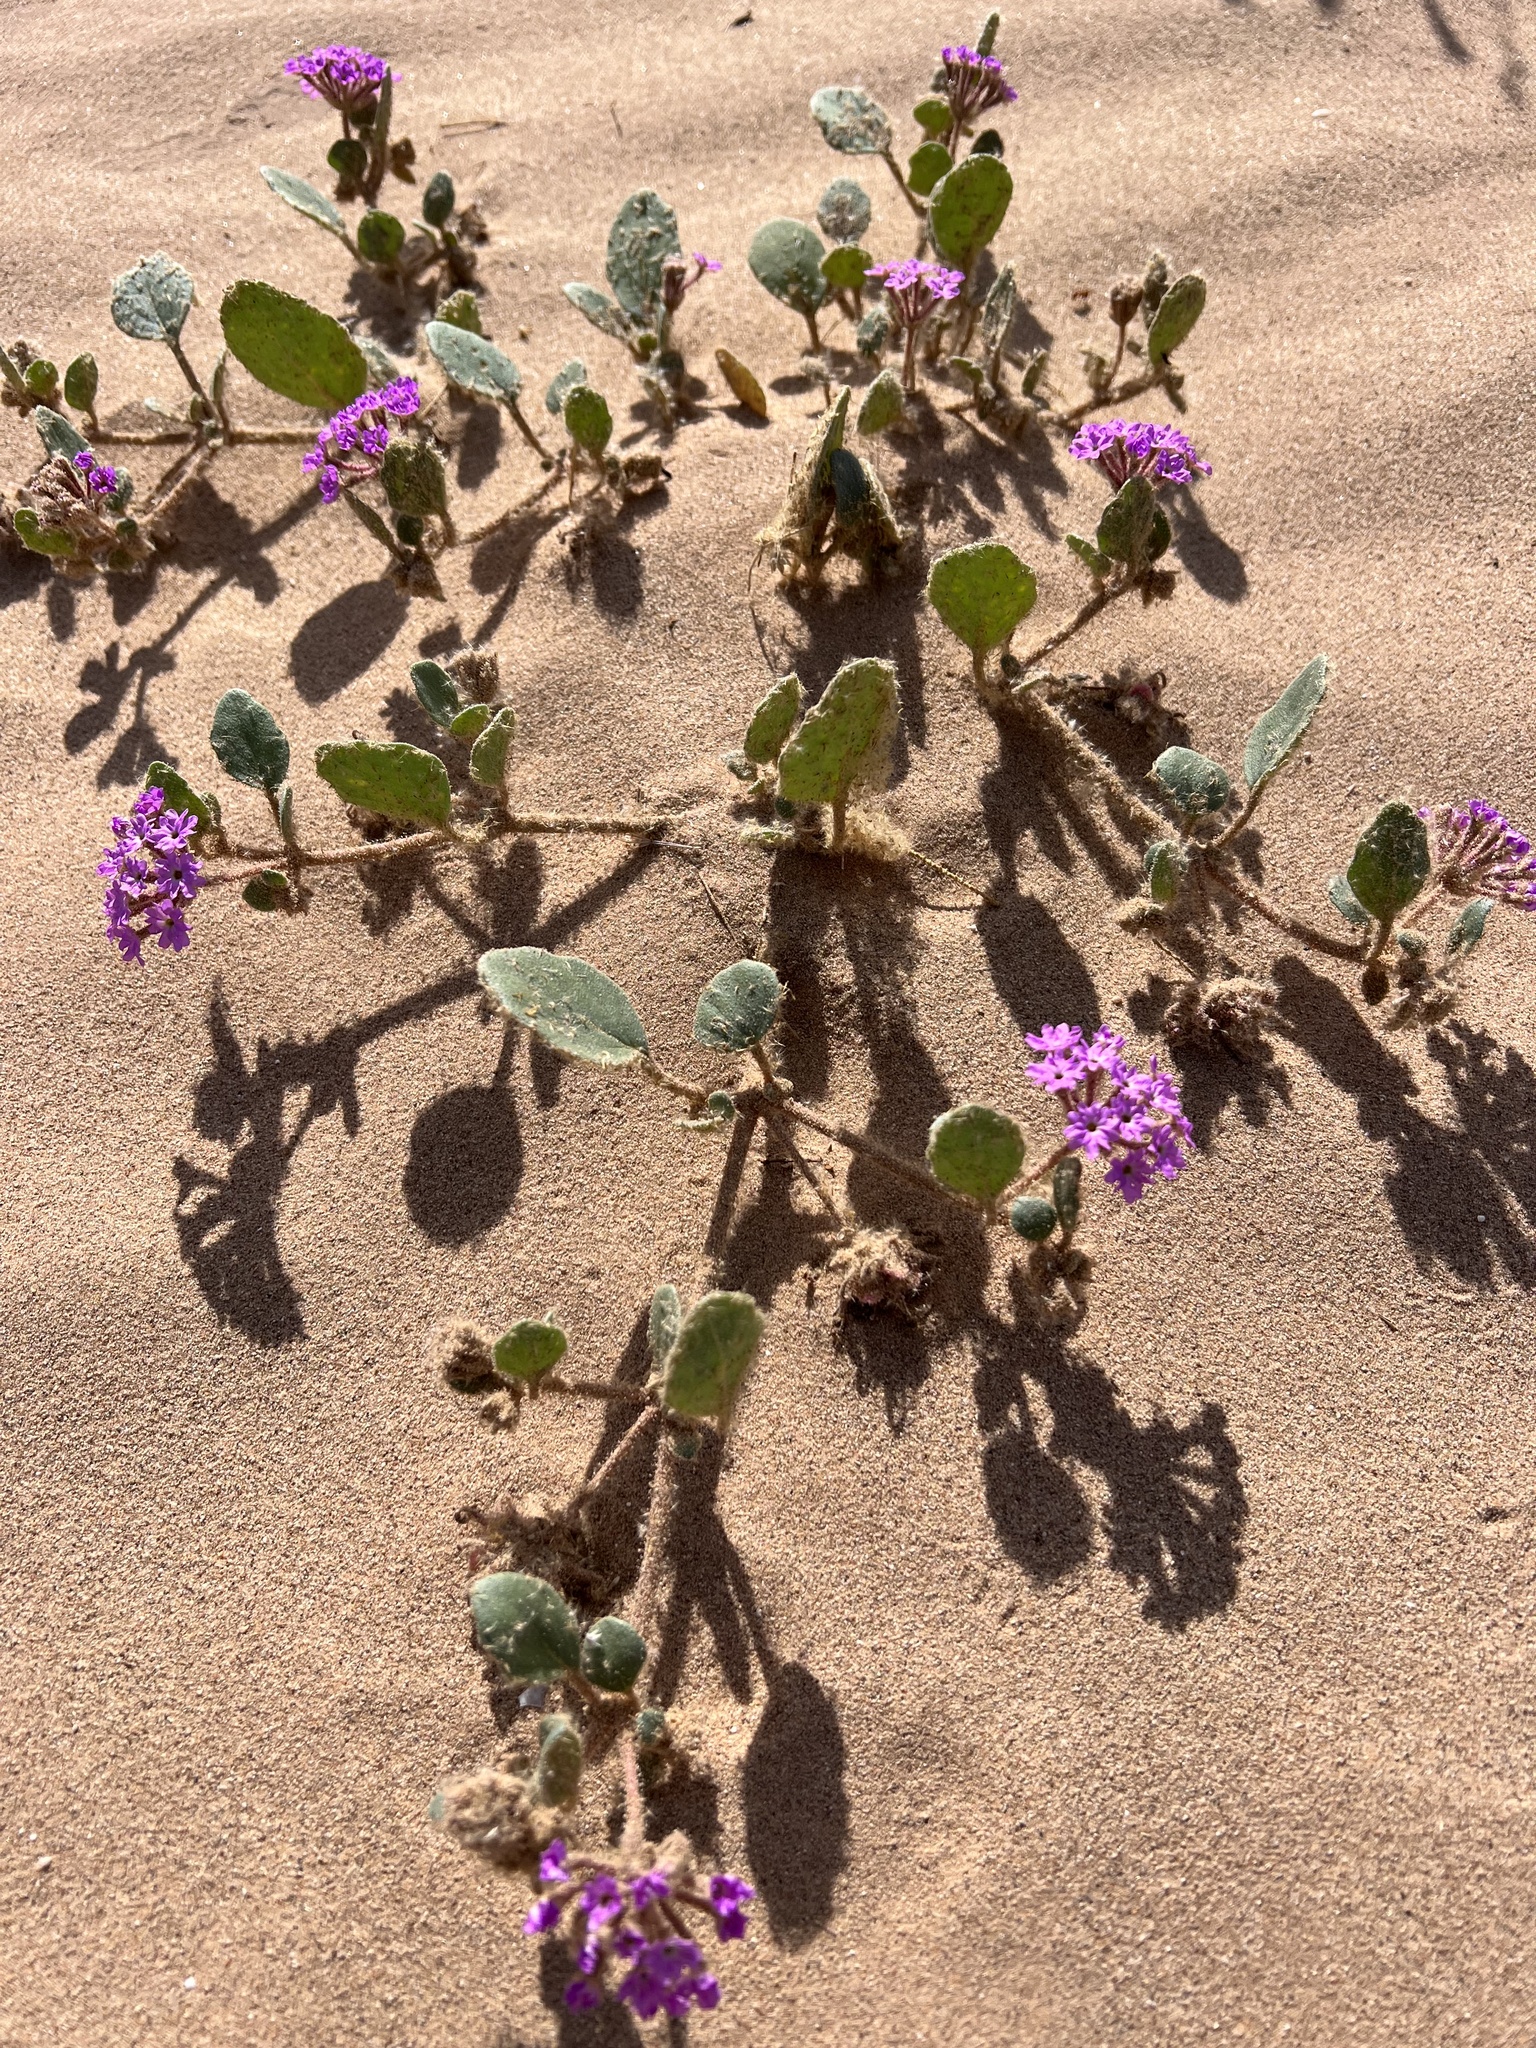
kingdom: Plantae
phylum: Tracheophyta
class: Magnoliopsida
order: Caryophyllales
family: Nyctaginaceae
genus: Abronia
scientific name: Abronia villosa
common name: Desert sand-verbena
